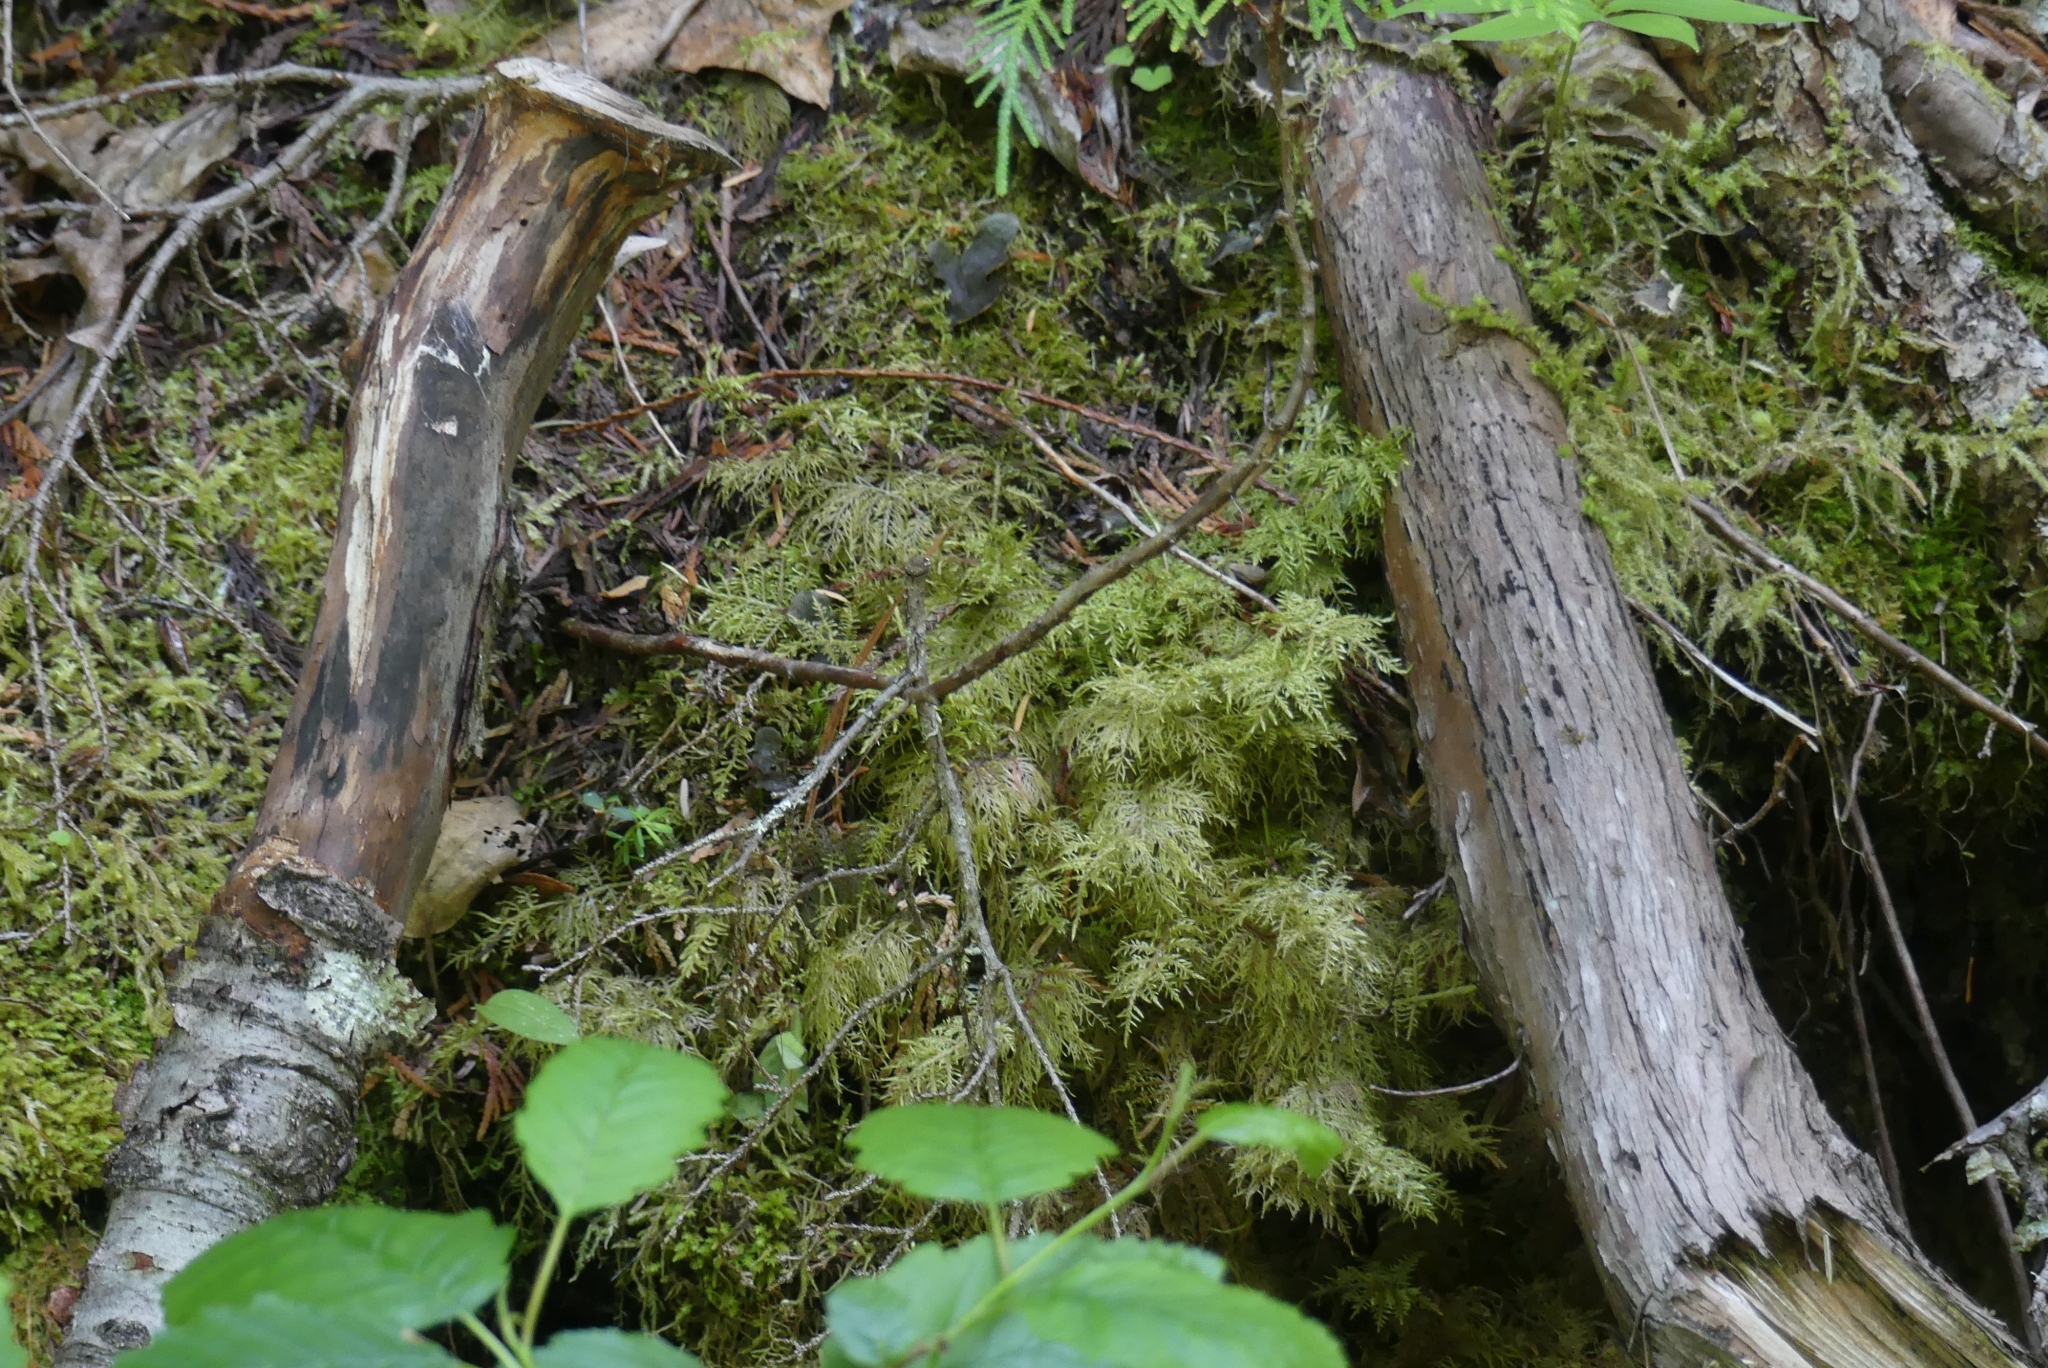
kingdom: Plantae
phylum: Bryophyta
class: Bryopsida
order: Hypnales
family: Hylocomiaceae
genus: Hylocomium
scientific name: Hylocomium splendens
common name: Stairstep moss
